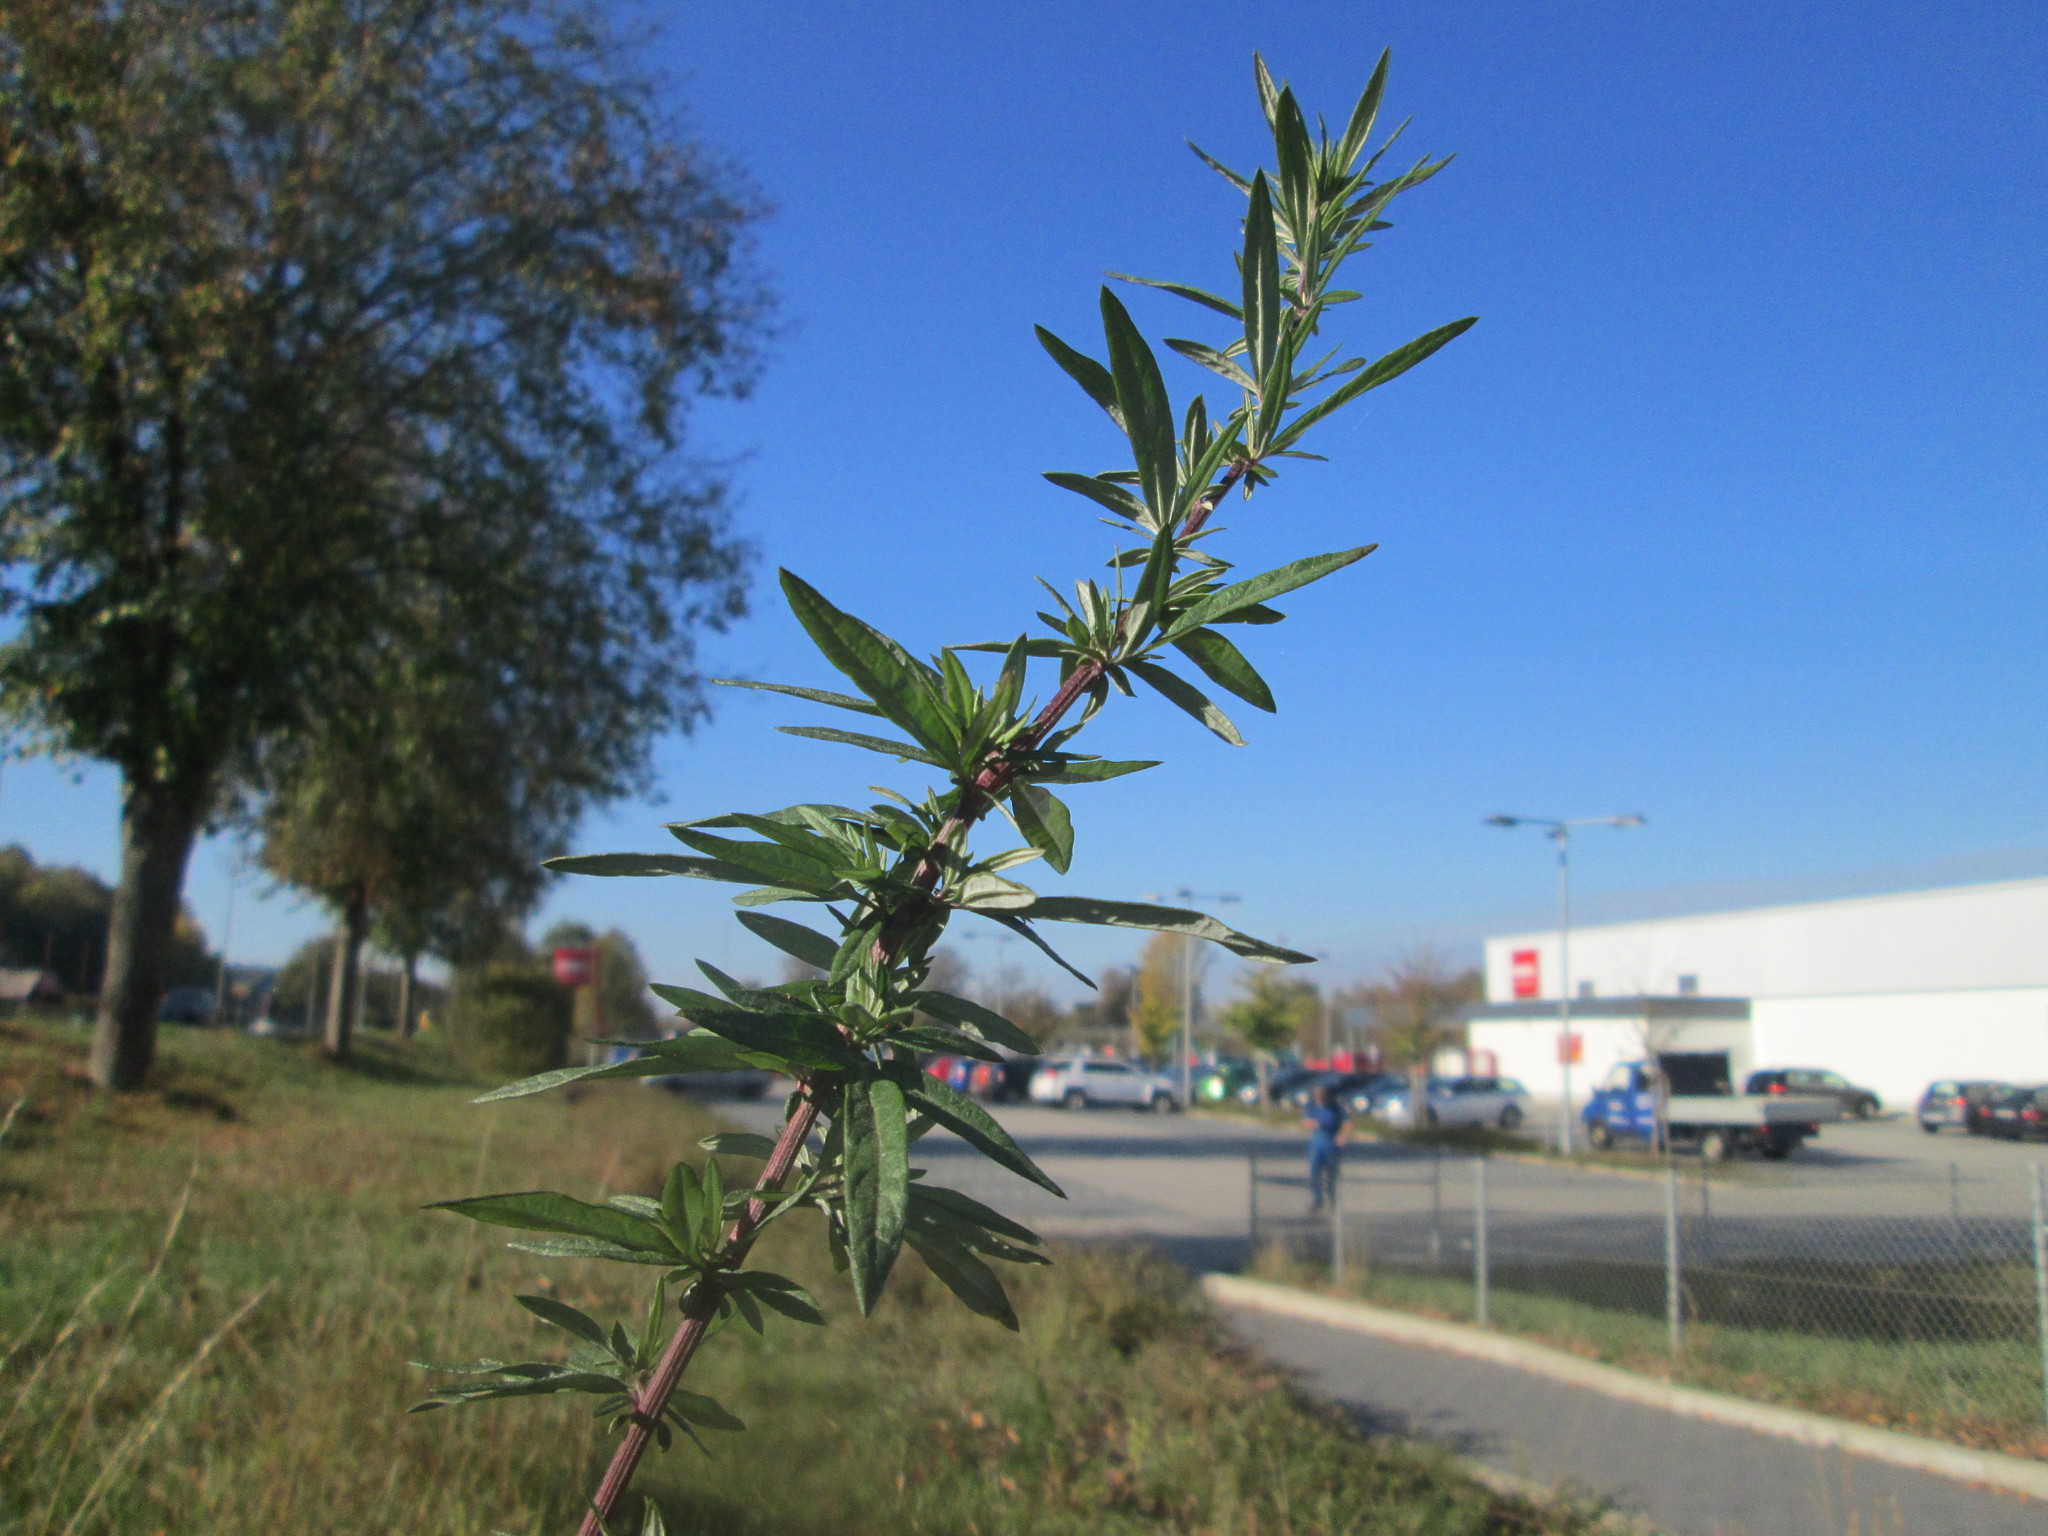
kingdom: Plantae
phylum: Tracheophyta
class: Magnoliopsida
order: Asterales
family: Asteraceae
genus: Artemisia
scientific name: Artemisia vulgaris
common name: Mugwort
